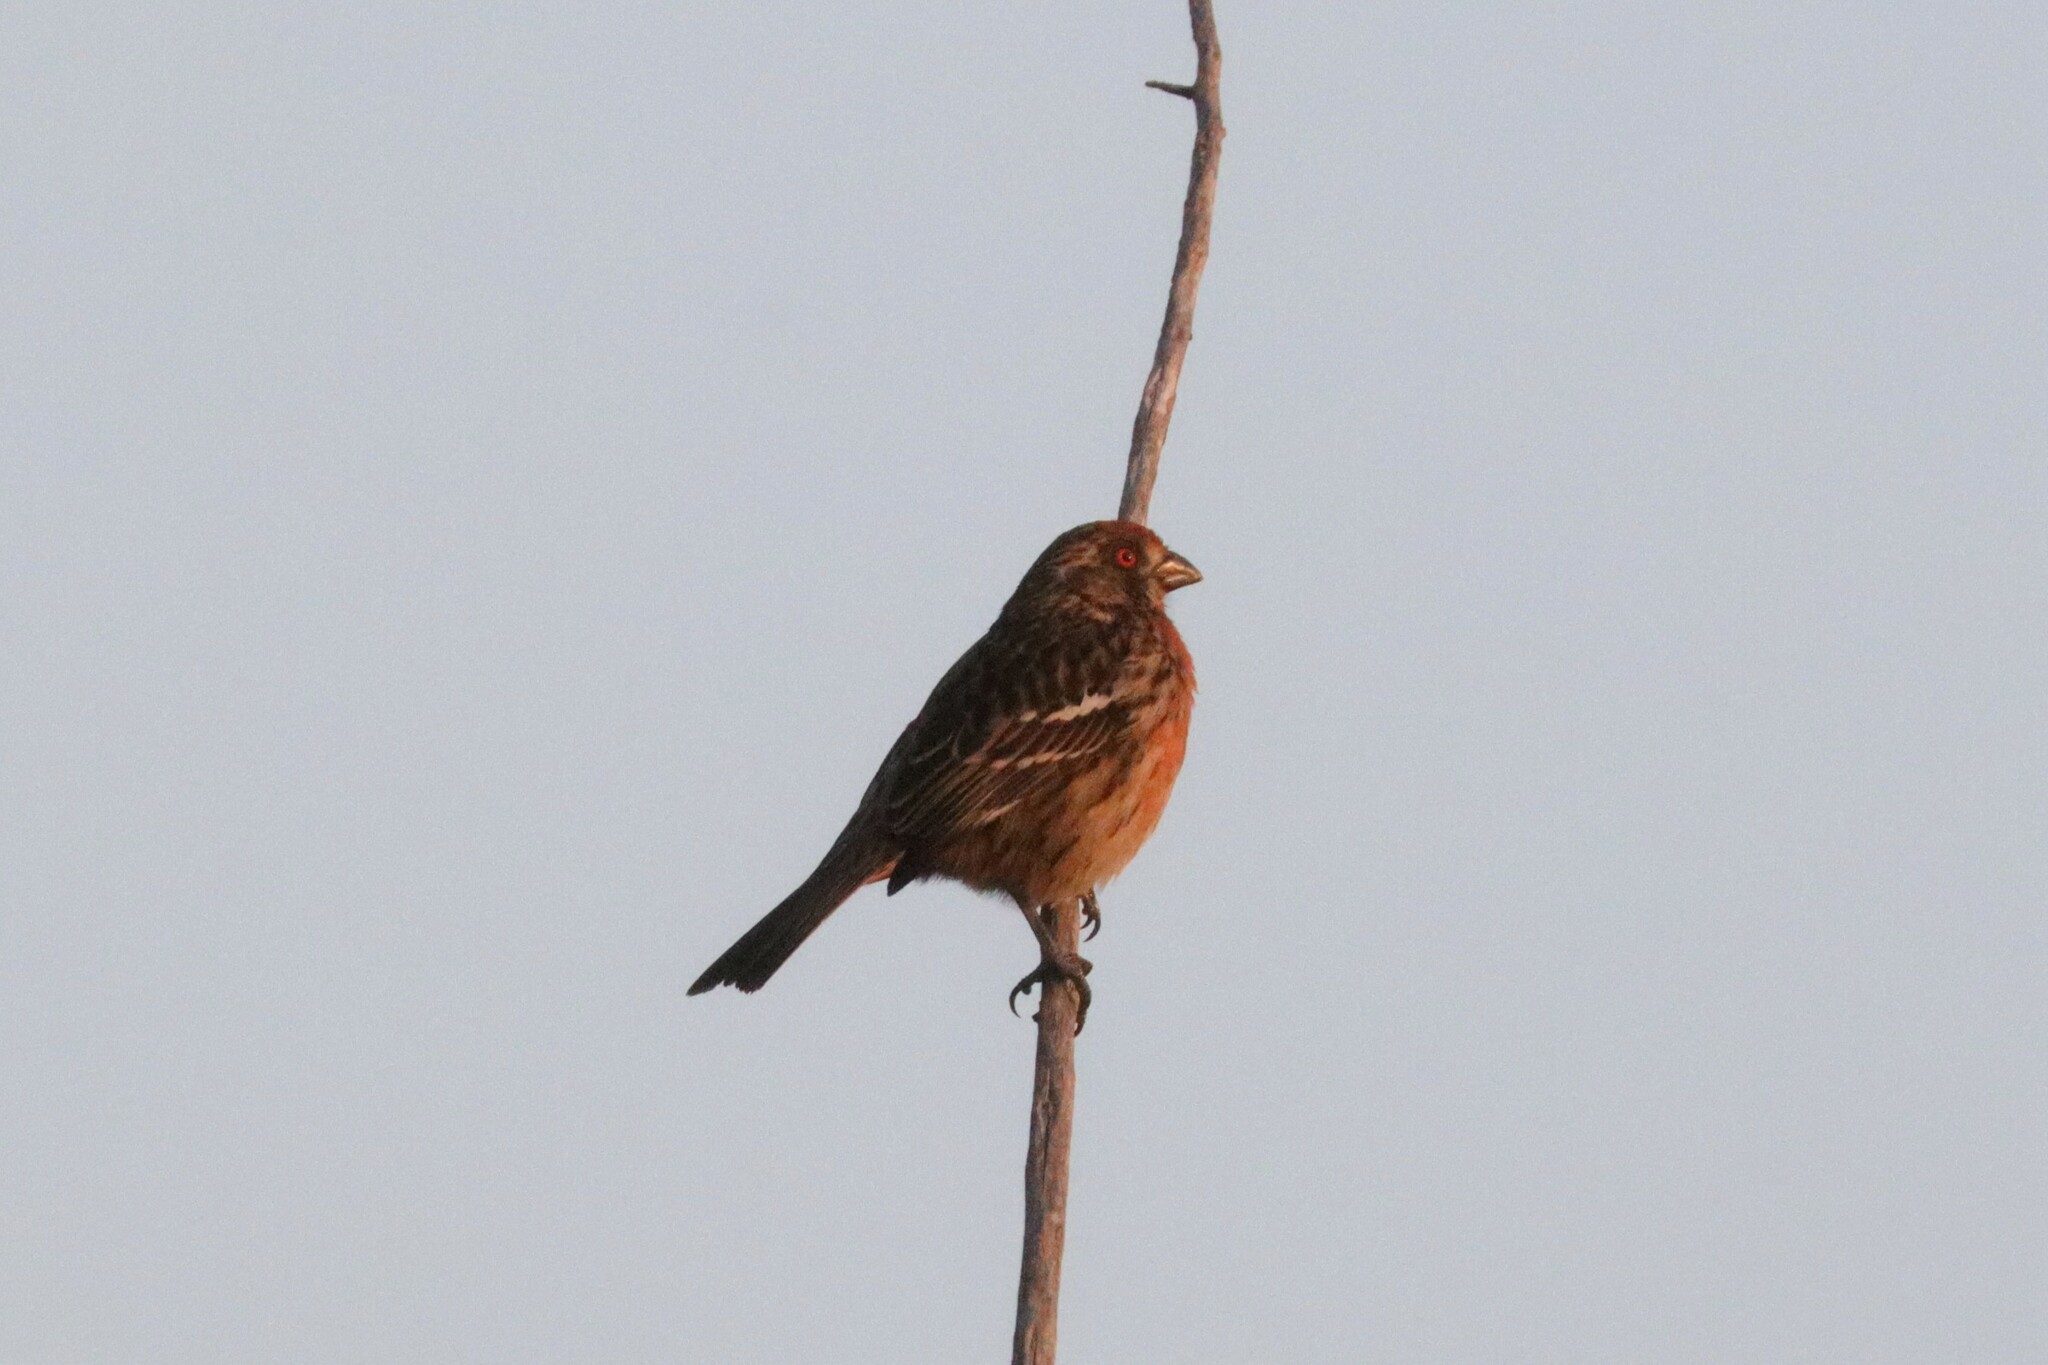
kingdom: Animalia
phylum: Chordata
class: Aves
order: Passeriformes
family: Cotingidae
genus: Phytotoma
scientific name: Phytotoma rara
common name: Rufous-tailed plantcutter
